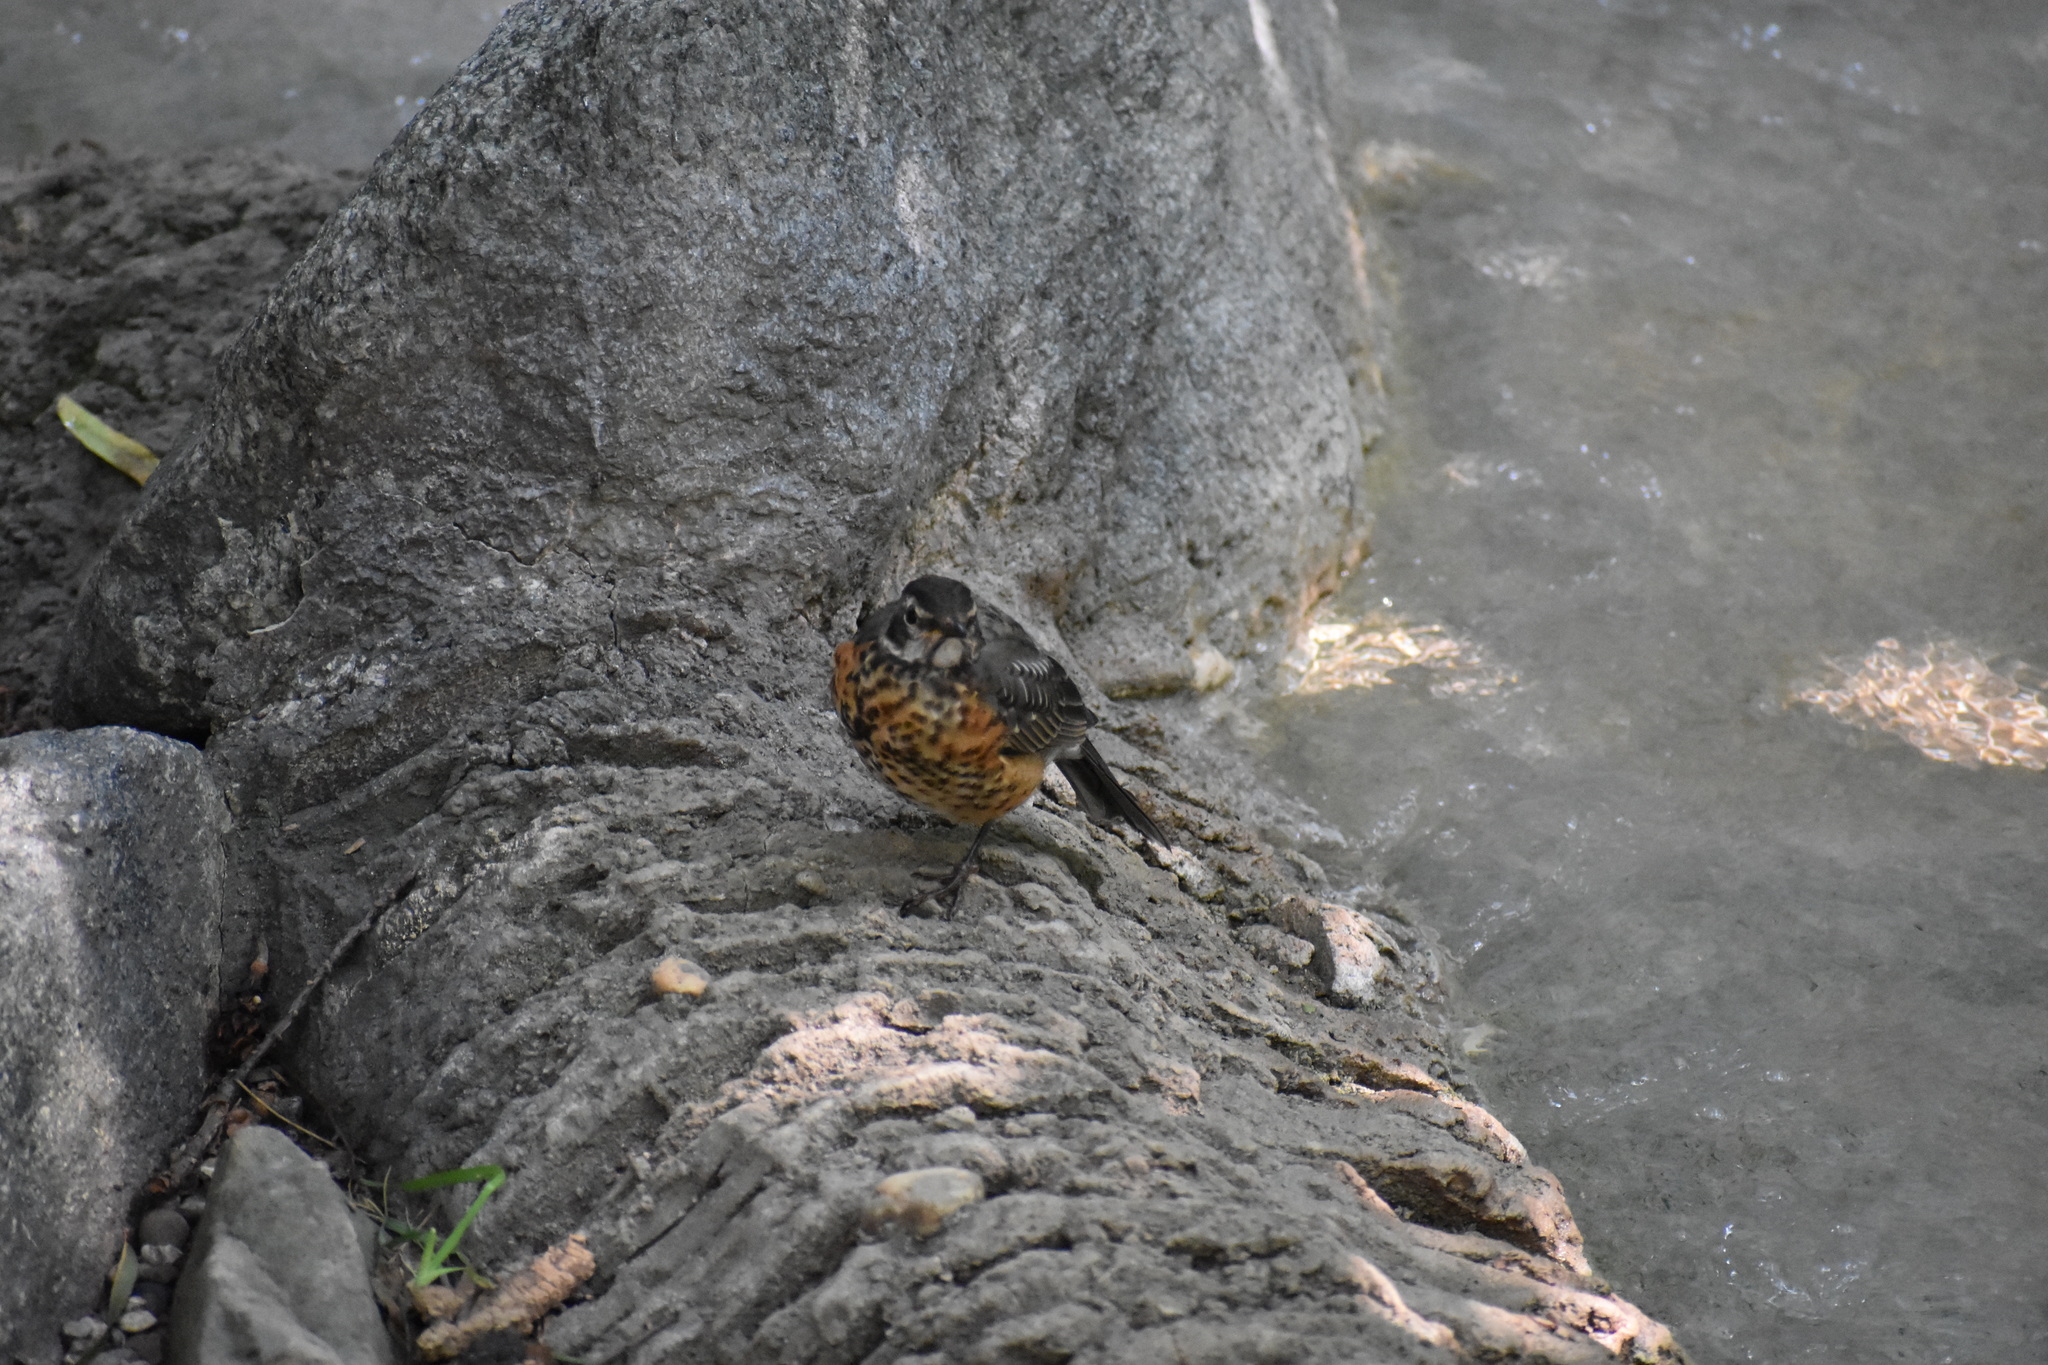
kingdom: Animalia
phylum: Chordata
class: Aves
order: Passeriformes
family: Turdidae
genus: Turdus
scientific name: Turdus migratorius
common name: American robin
